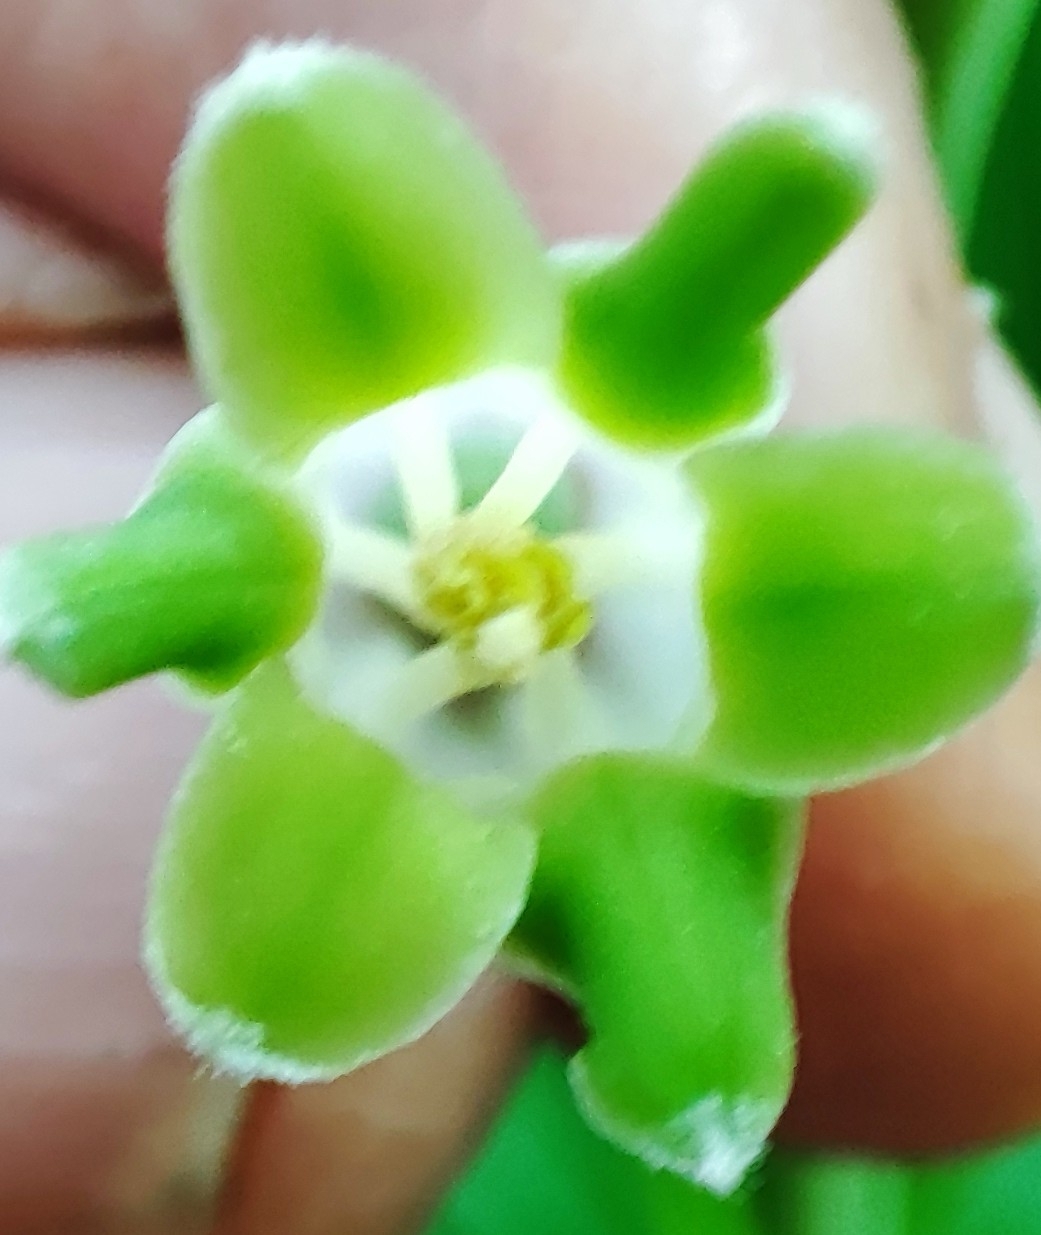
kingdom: Plantae
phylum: Tracheophyta
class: Liliopsida
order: Asparagales
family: Asparagaceae
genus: Polygonatum
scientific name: Polygonatum odoratum
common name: Angular solomon's-seal
